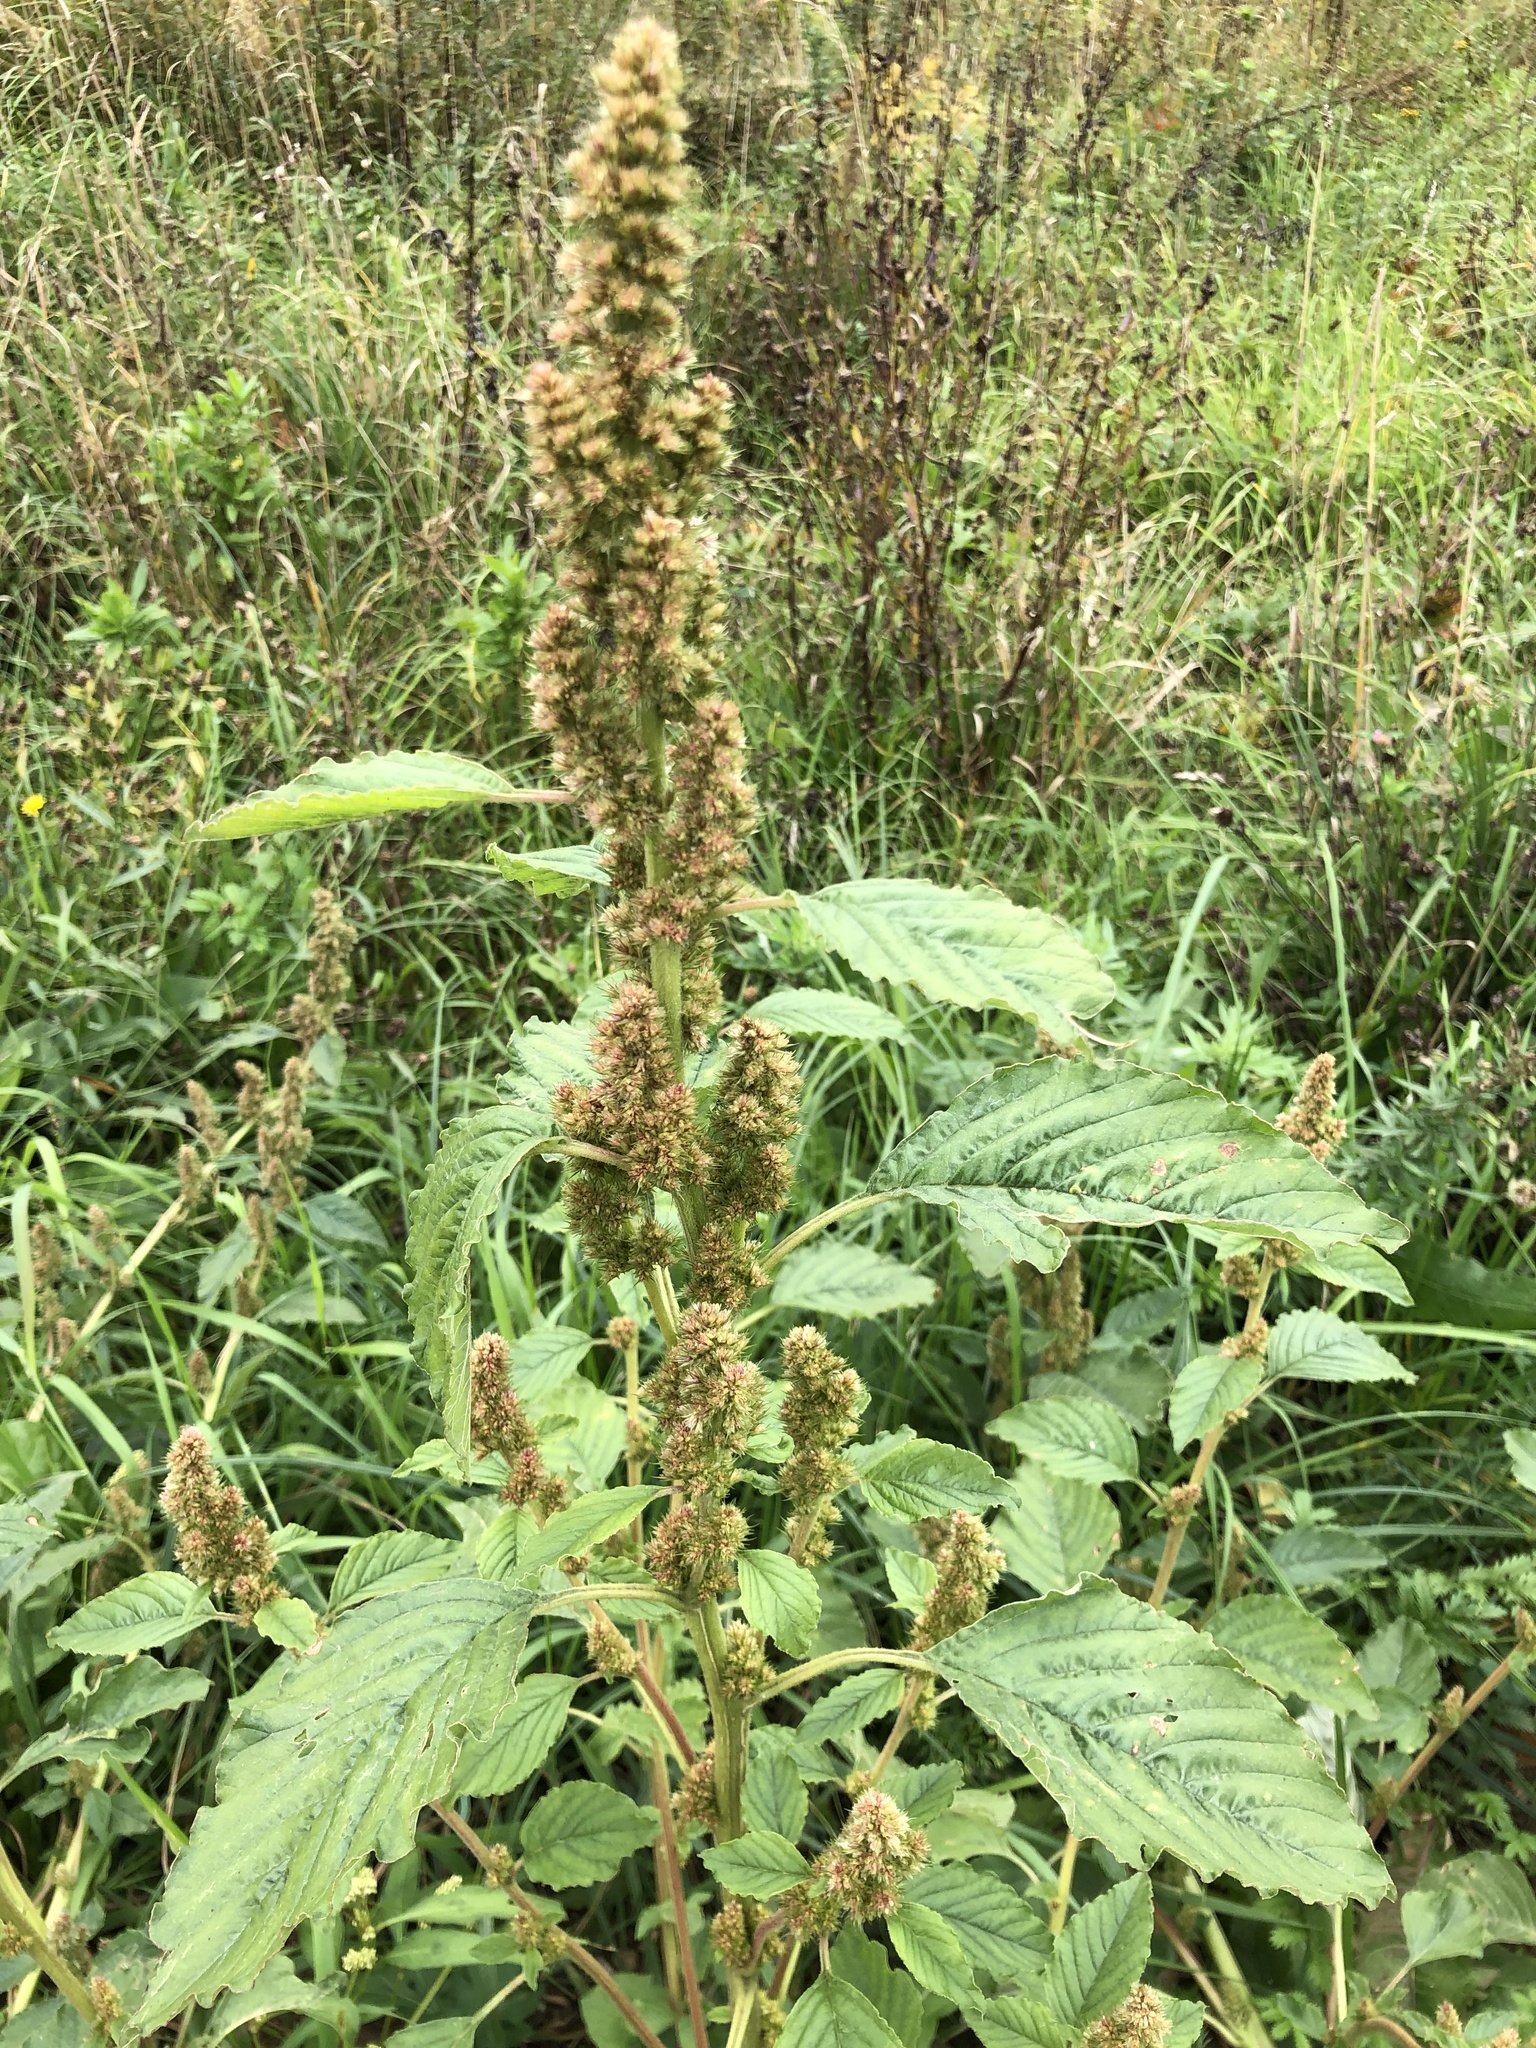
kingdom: Plantae
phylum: Tracheophyta
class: Magnoliopsida
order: Caryophyllales
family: Amaranthaceae
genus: Amaranthus
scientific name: Amaranthus retroflexus
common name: Redroot amaranth
